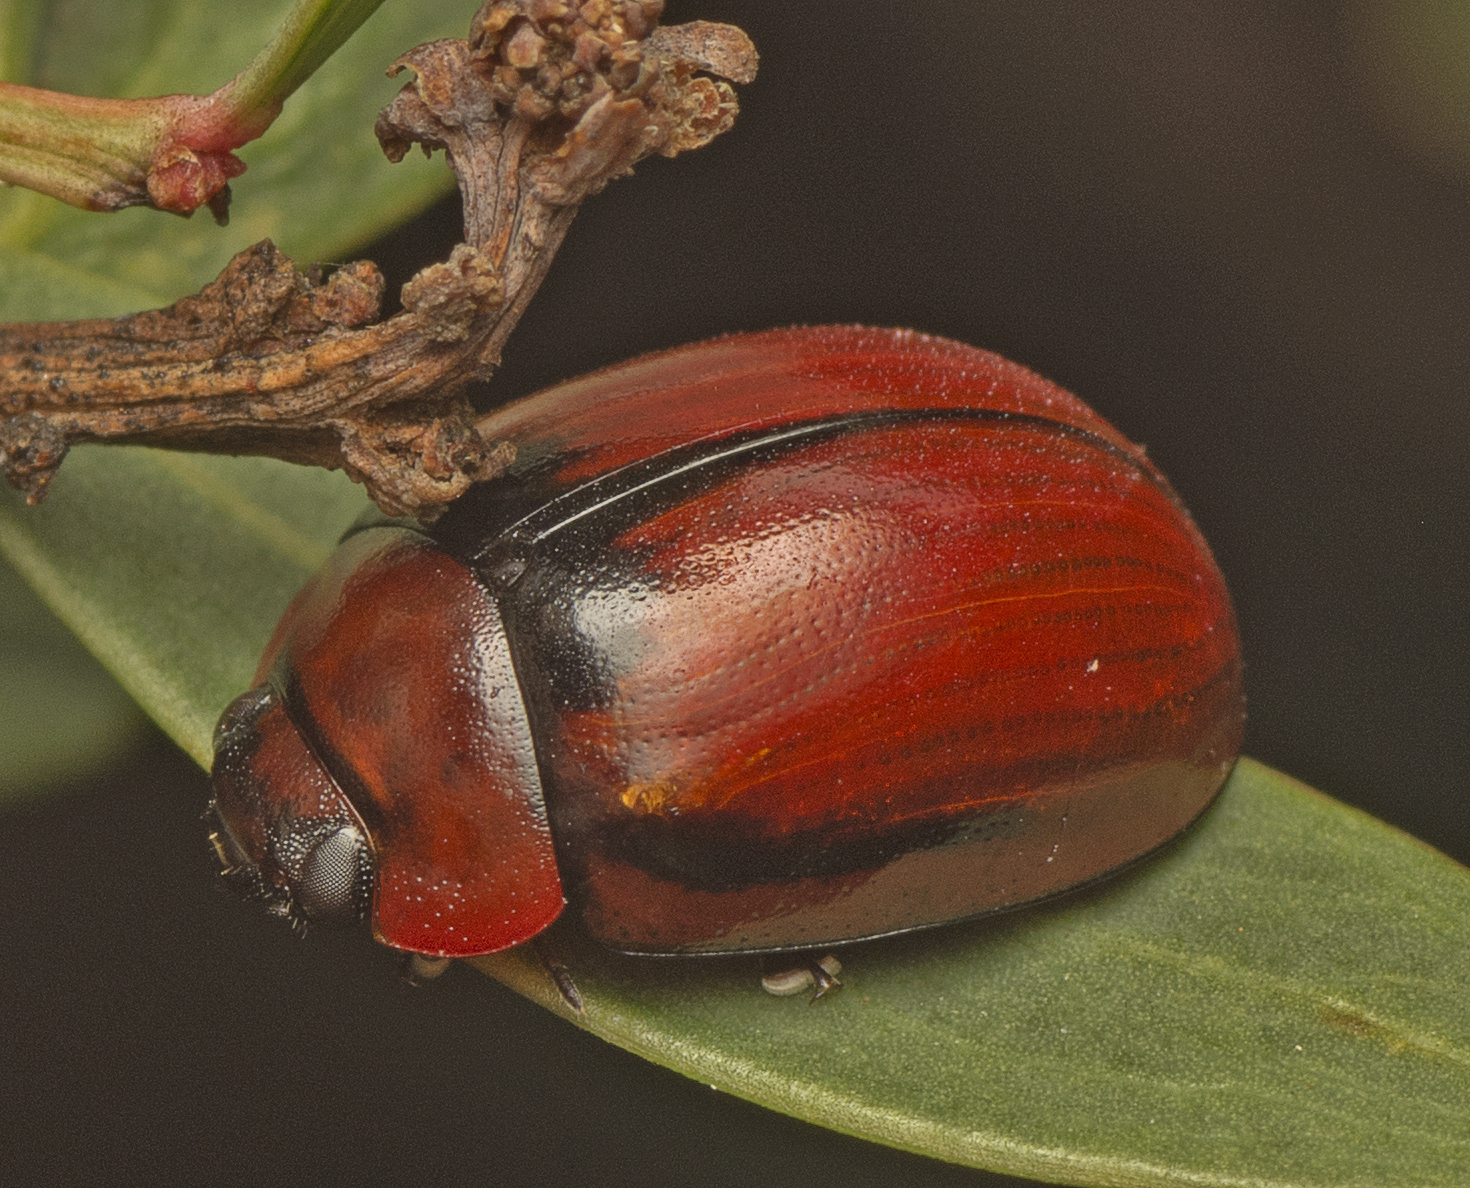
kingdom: Animalia
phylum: Arthropoda
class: Insecta
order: Coleoptera
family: Chrysomelidae
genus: Paropsisterna
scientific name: Paropsisterna
